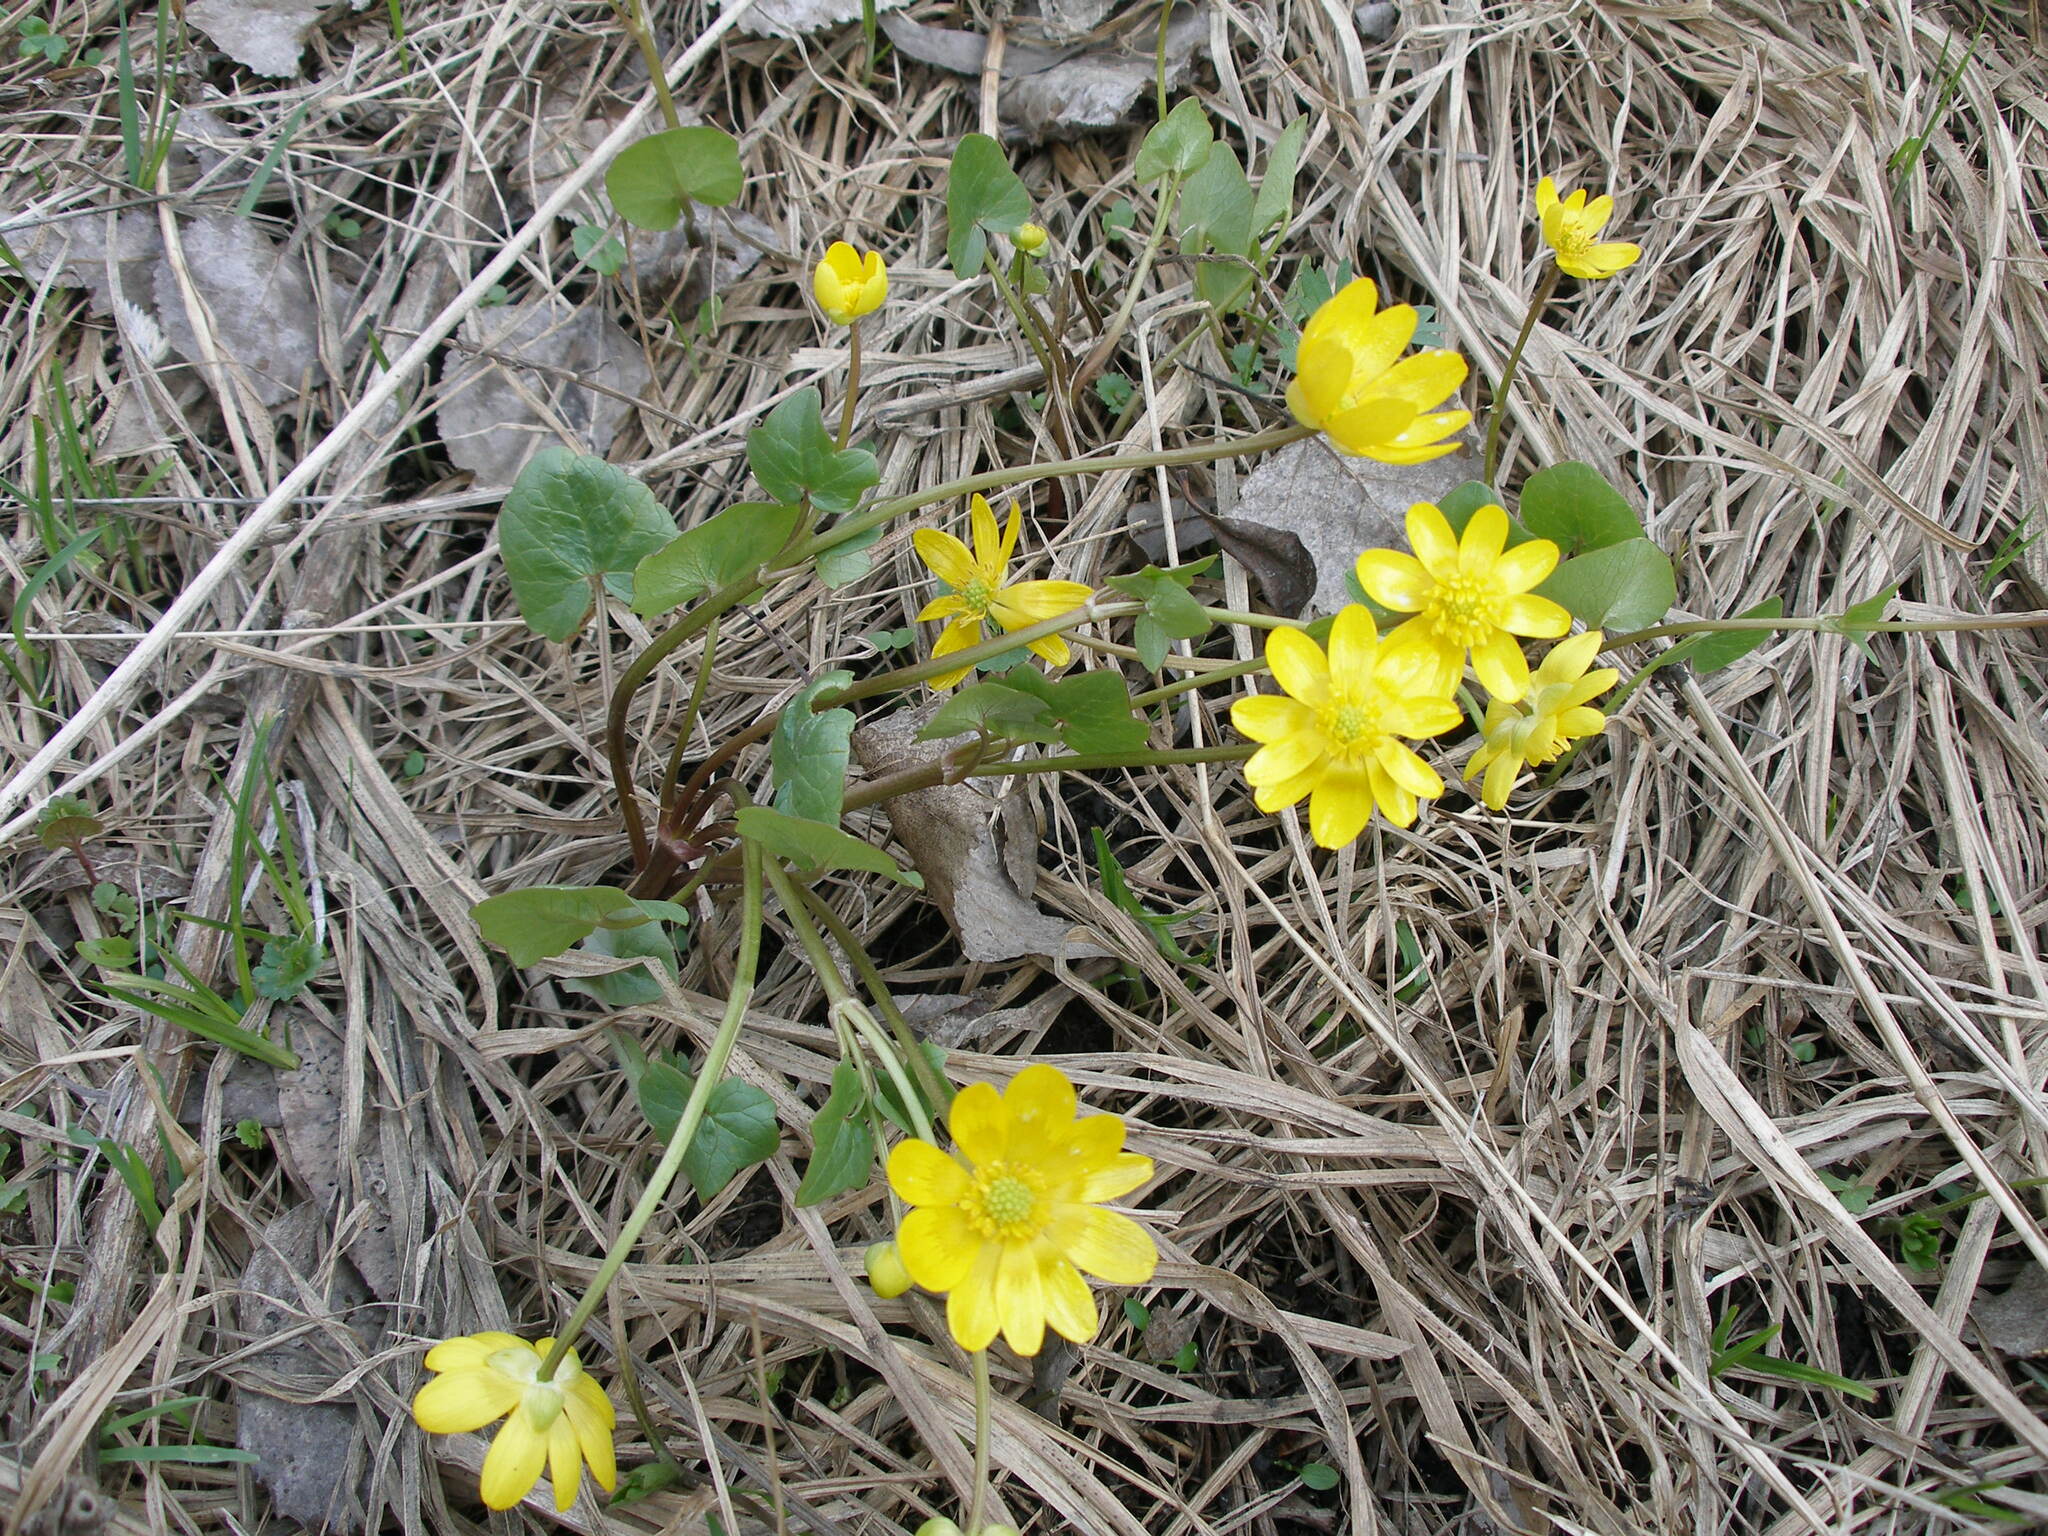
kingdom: Plantae
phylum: Tracheophyta
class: Magnoliopsida
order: Ranunculales
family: Ranunculaceae
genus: Ficaria
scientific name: Ficaria verna
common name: Lesser celandine
